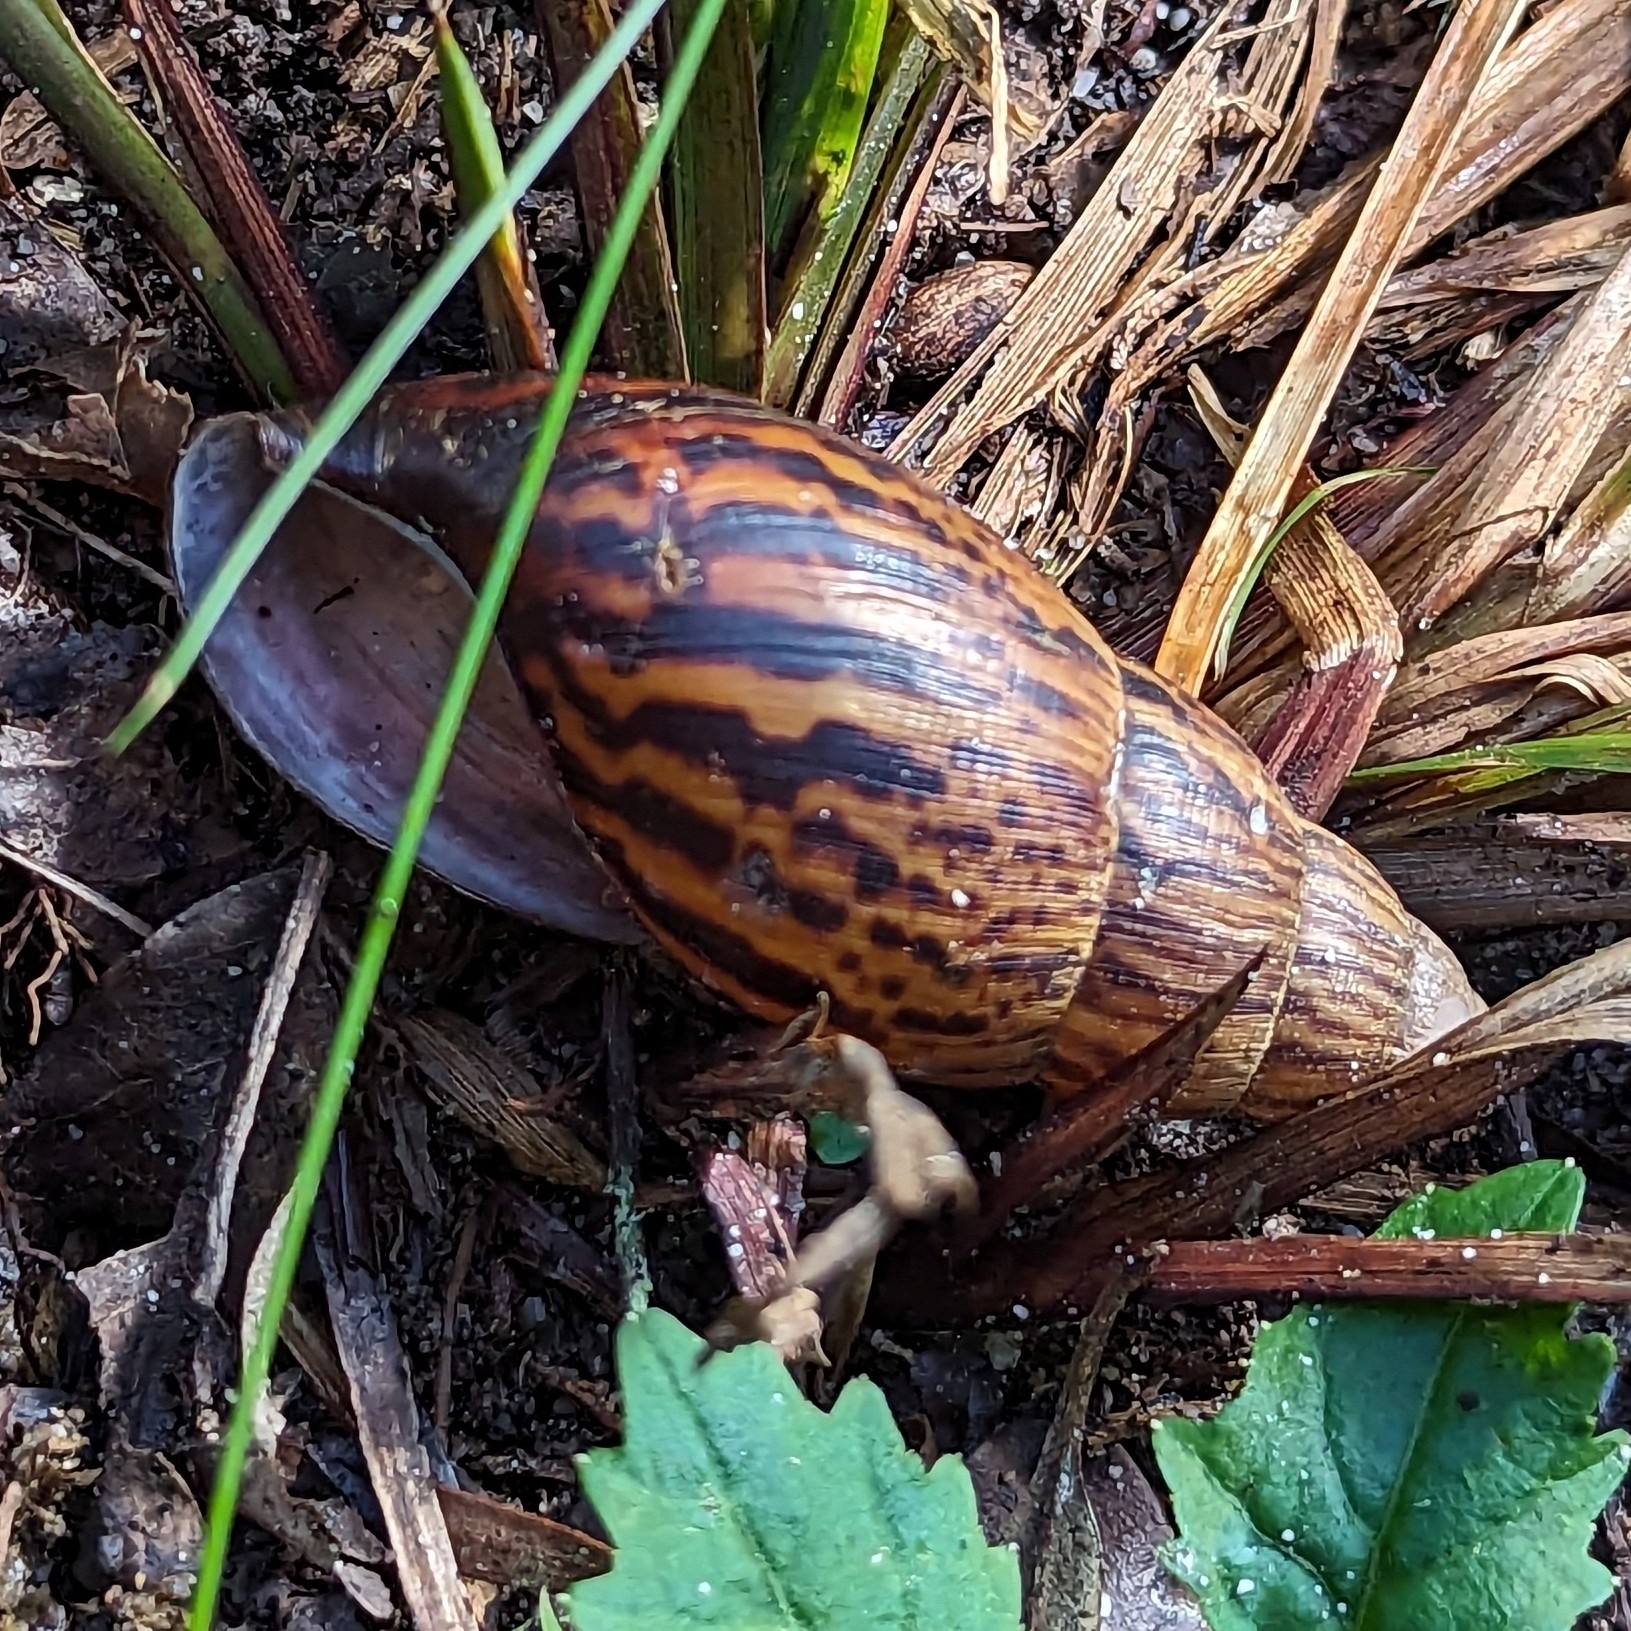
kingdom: Animalia
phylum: Mollusca
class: Gastropoda
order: Stylommatophora
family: Achatinidae
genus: Cochlitoma
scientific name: Cochlitoma ustulata
